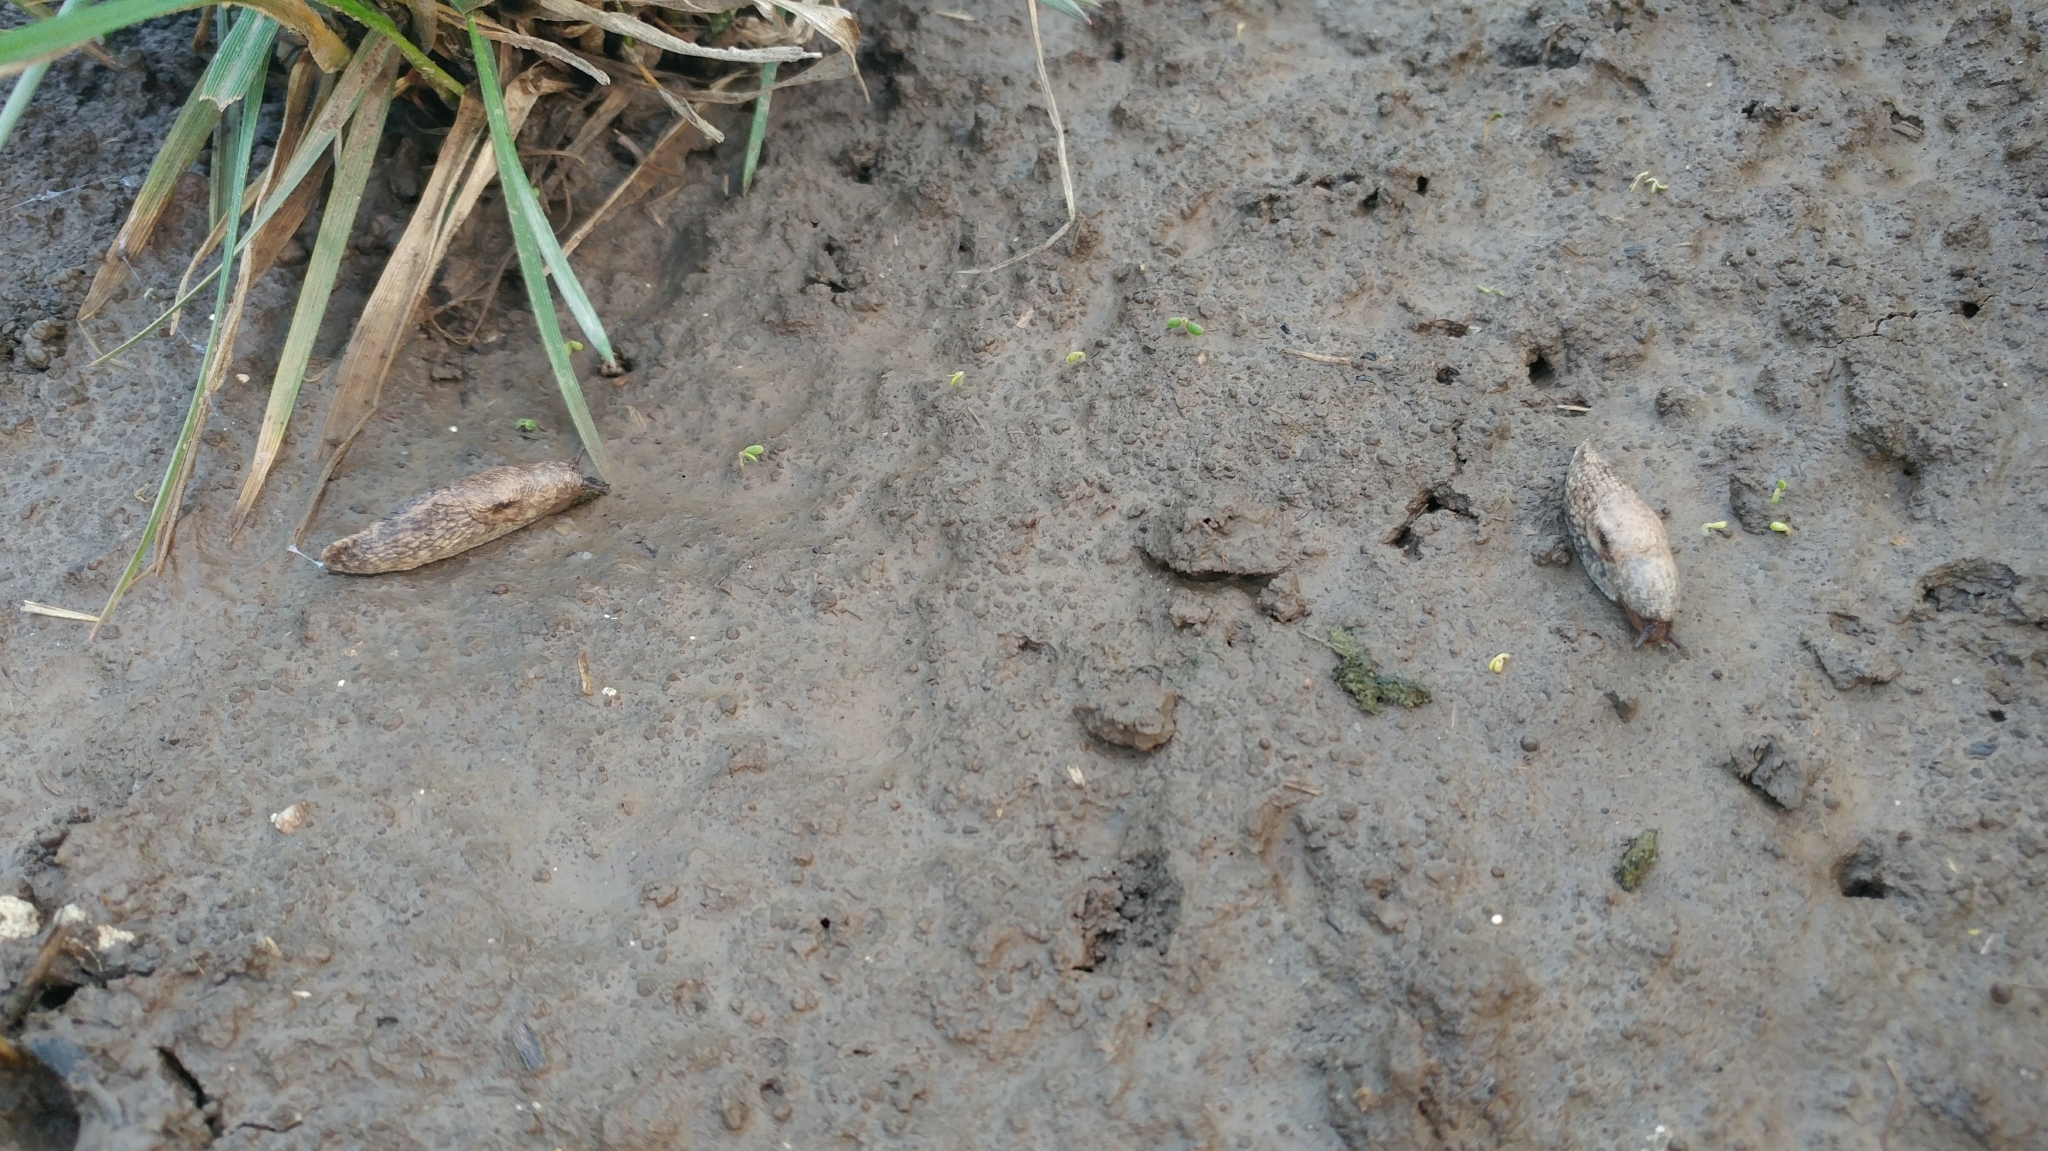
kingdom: Animalia
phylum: Mollusca
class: Gastropoda
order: Stylommatophora
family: Agriolimacidae
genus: Deroceras
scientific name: Deroceras reticulatum
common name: Gray field slug
